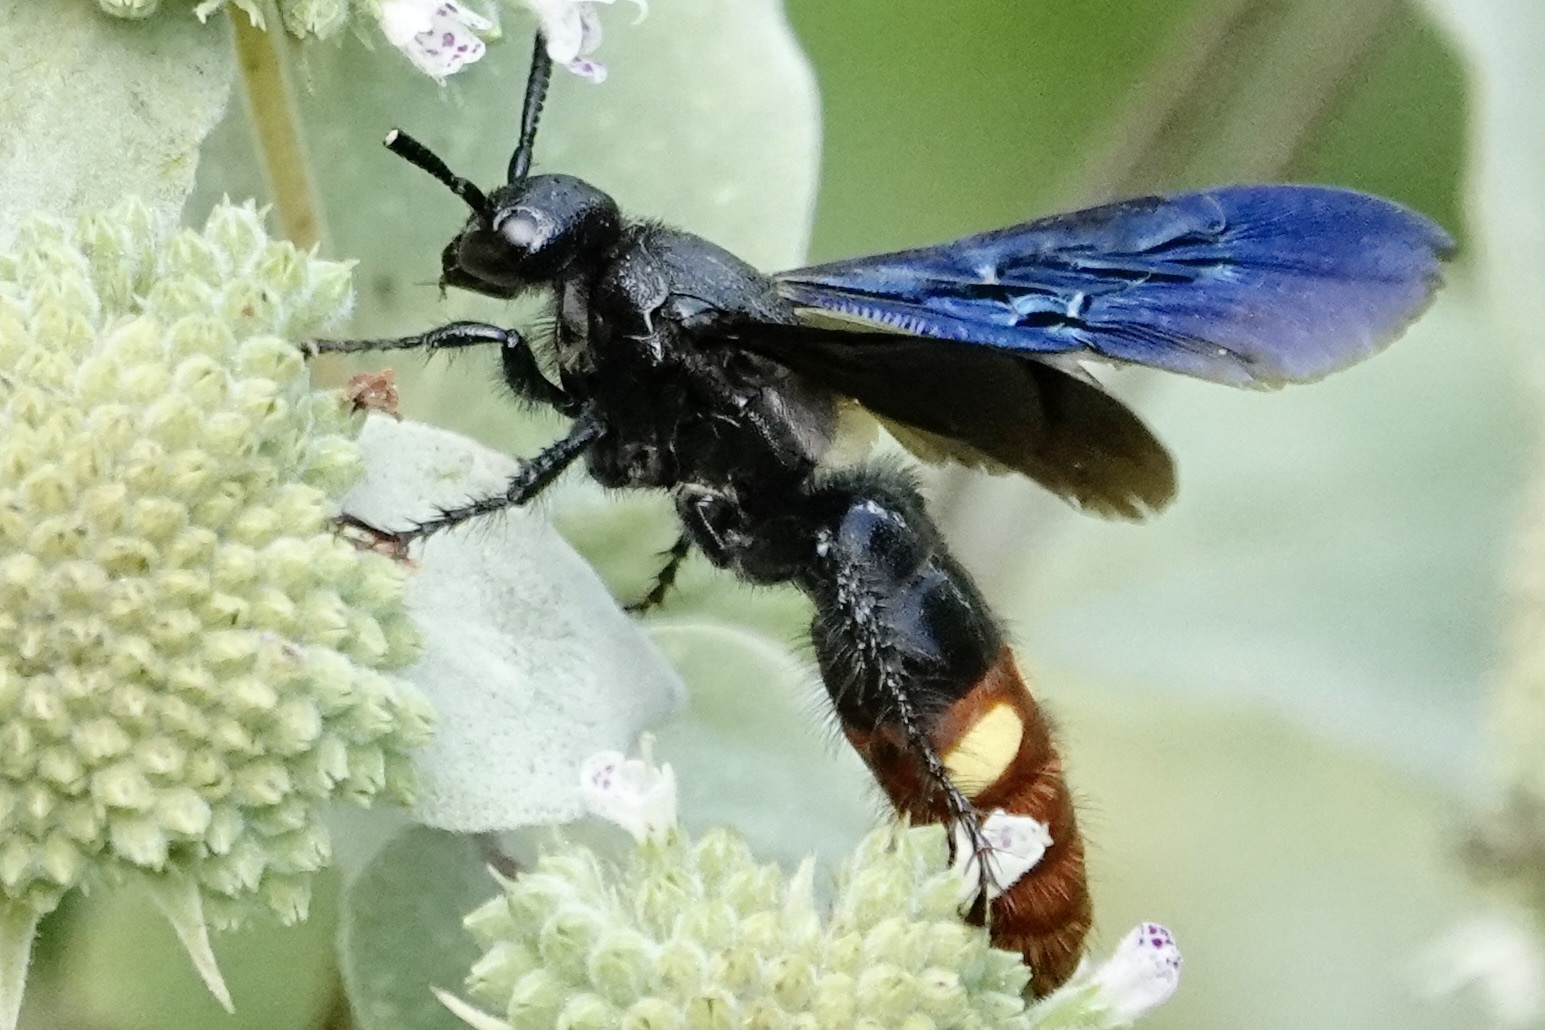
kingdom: Animalia
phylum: Arthropoda
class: Insecta
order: Hymenoptera
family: Scoliidae
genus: Scolia
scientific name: Scolia dubia
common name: Blue-winged scoliid wasp
